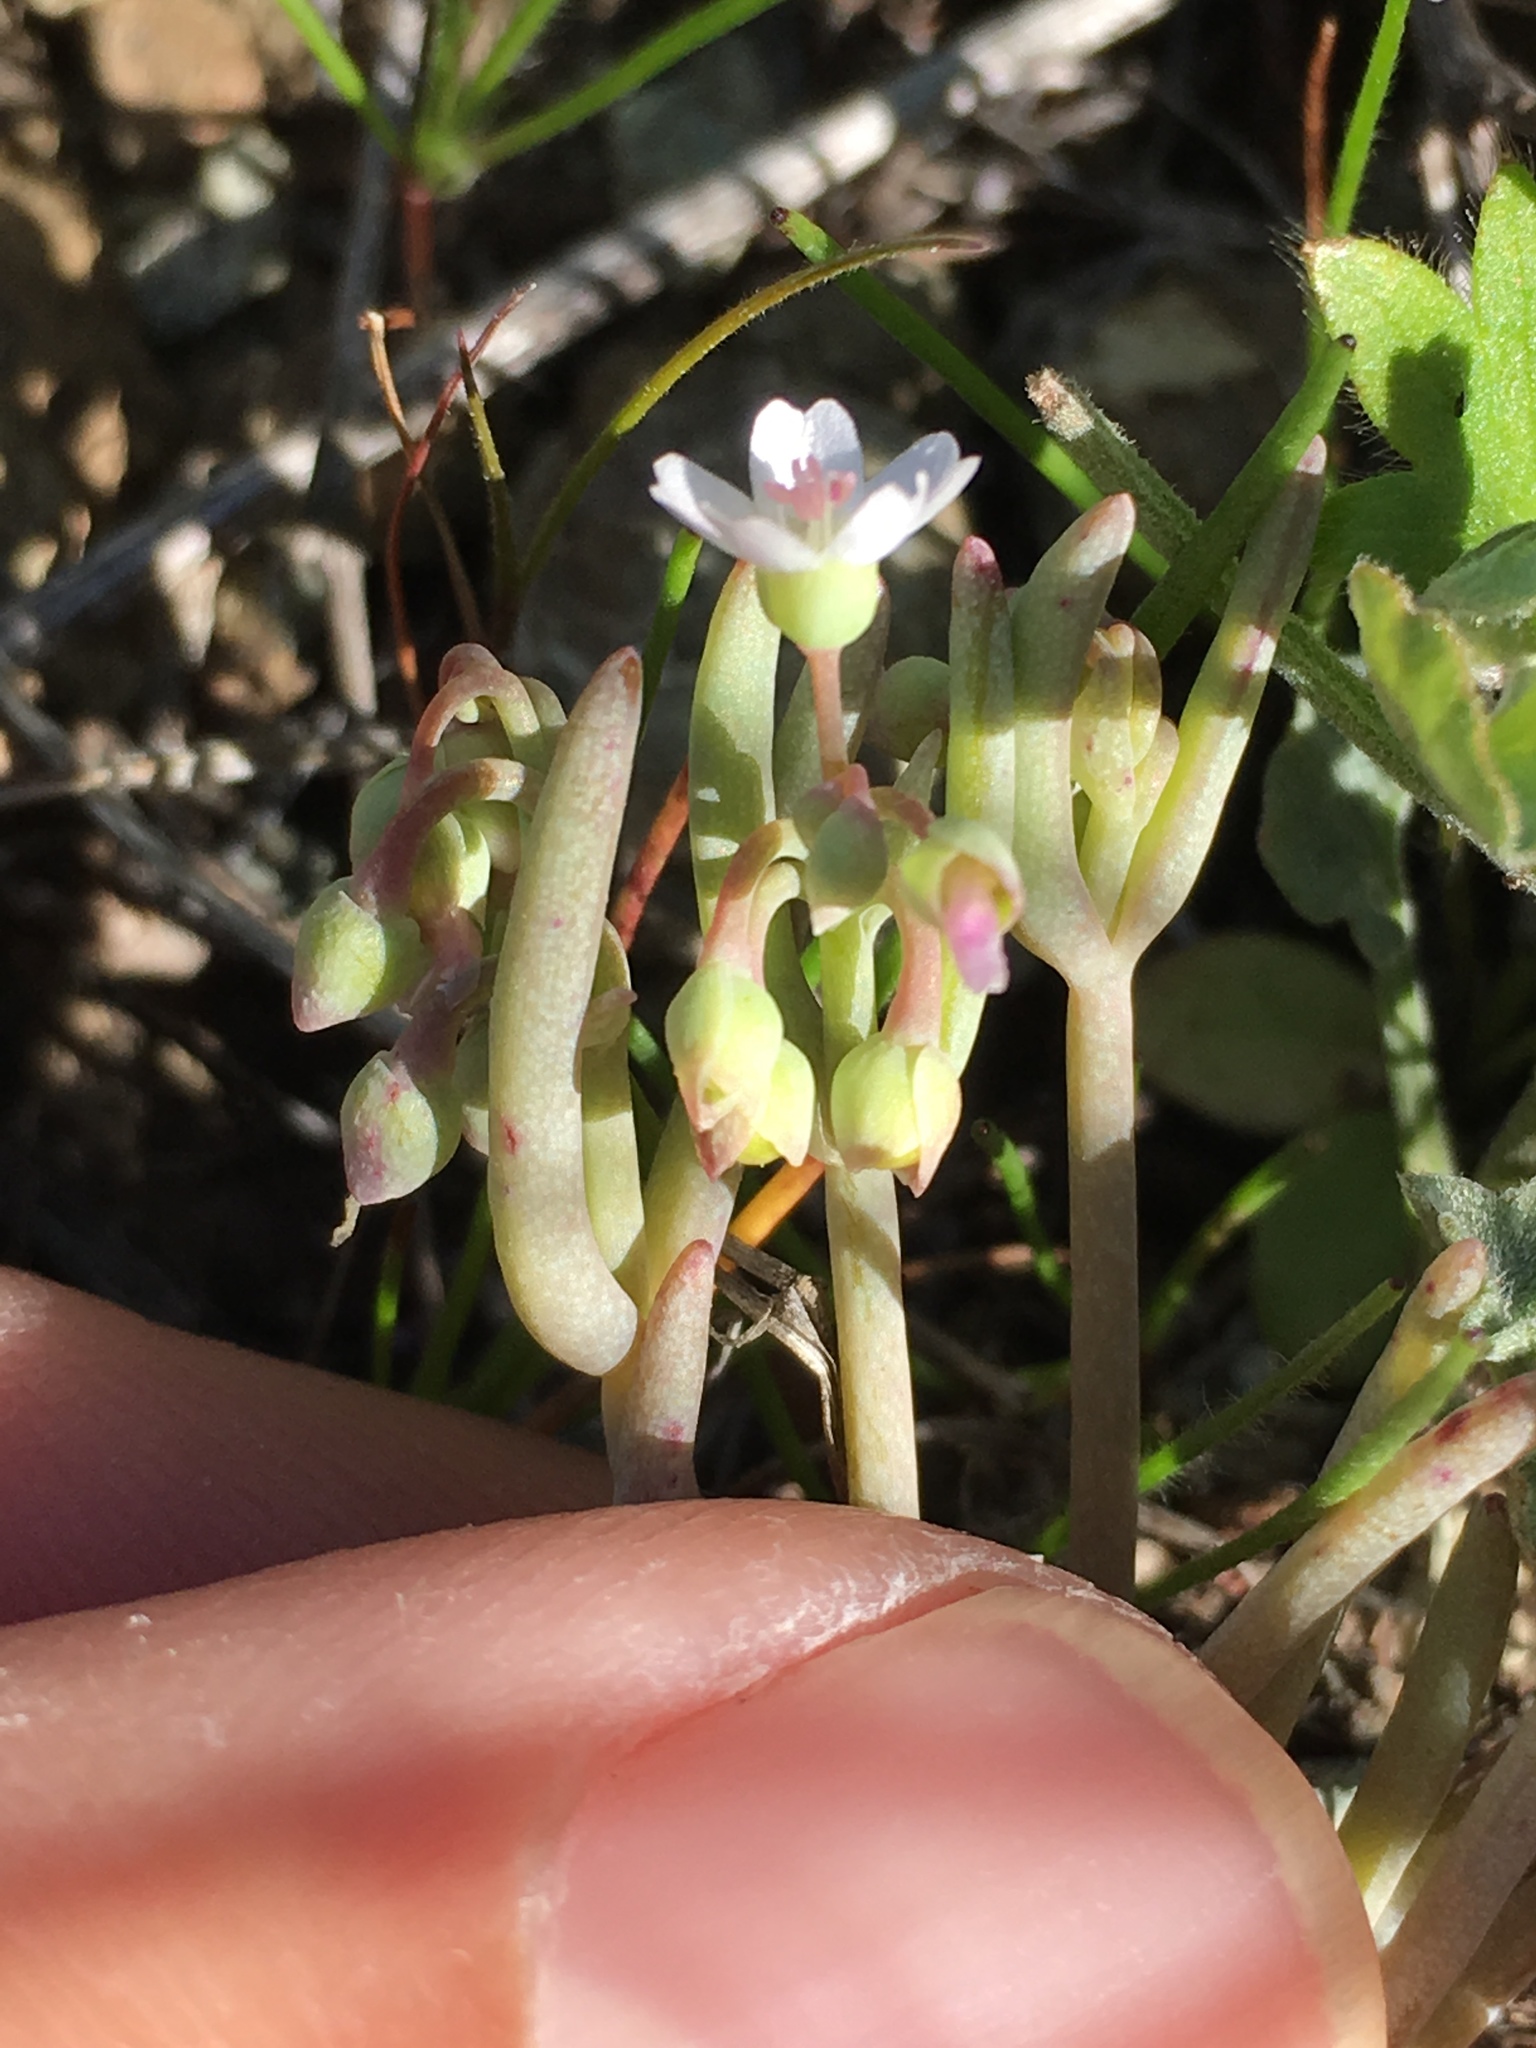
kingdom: Plantae
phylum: Tracheophyta
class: Magnoliopsida
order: Caryophyllales
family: Montiaceae
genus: Claytonia
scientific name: Claytonia exigua
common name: Pale spring beauty
